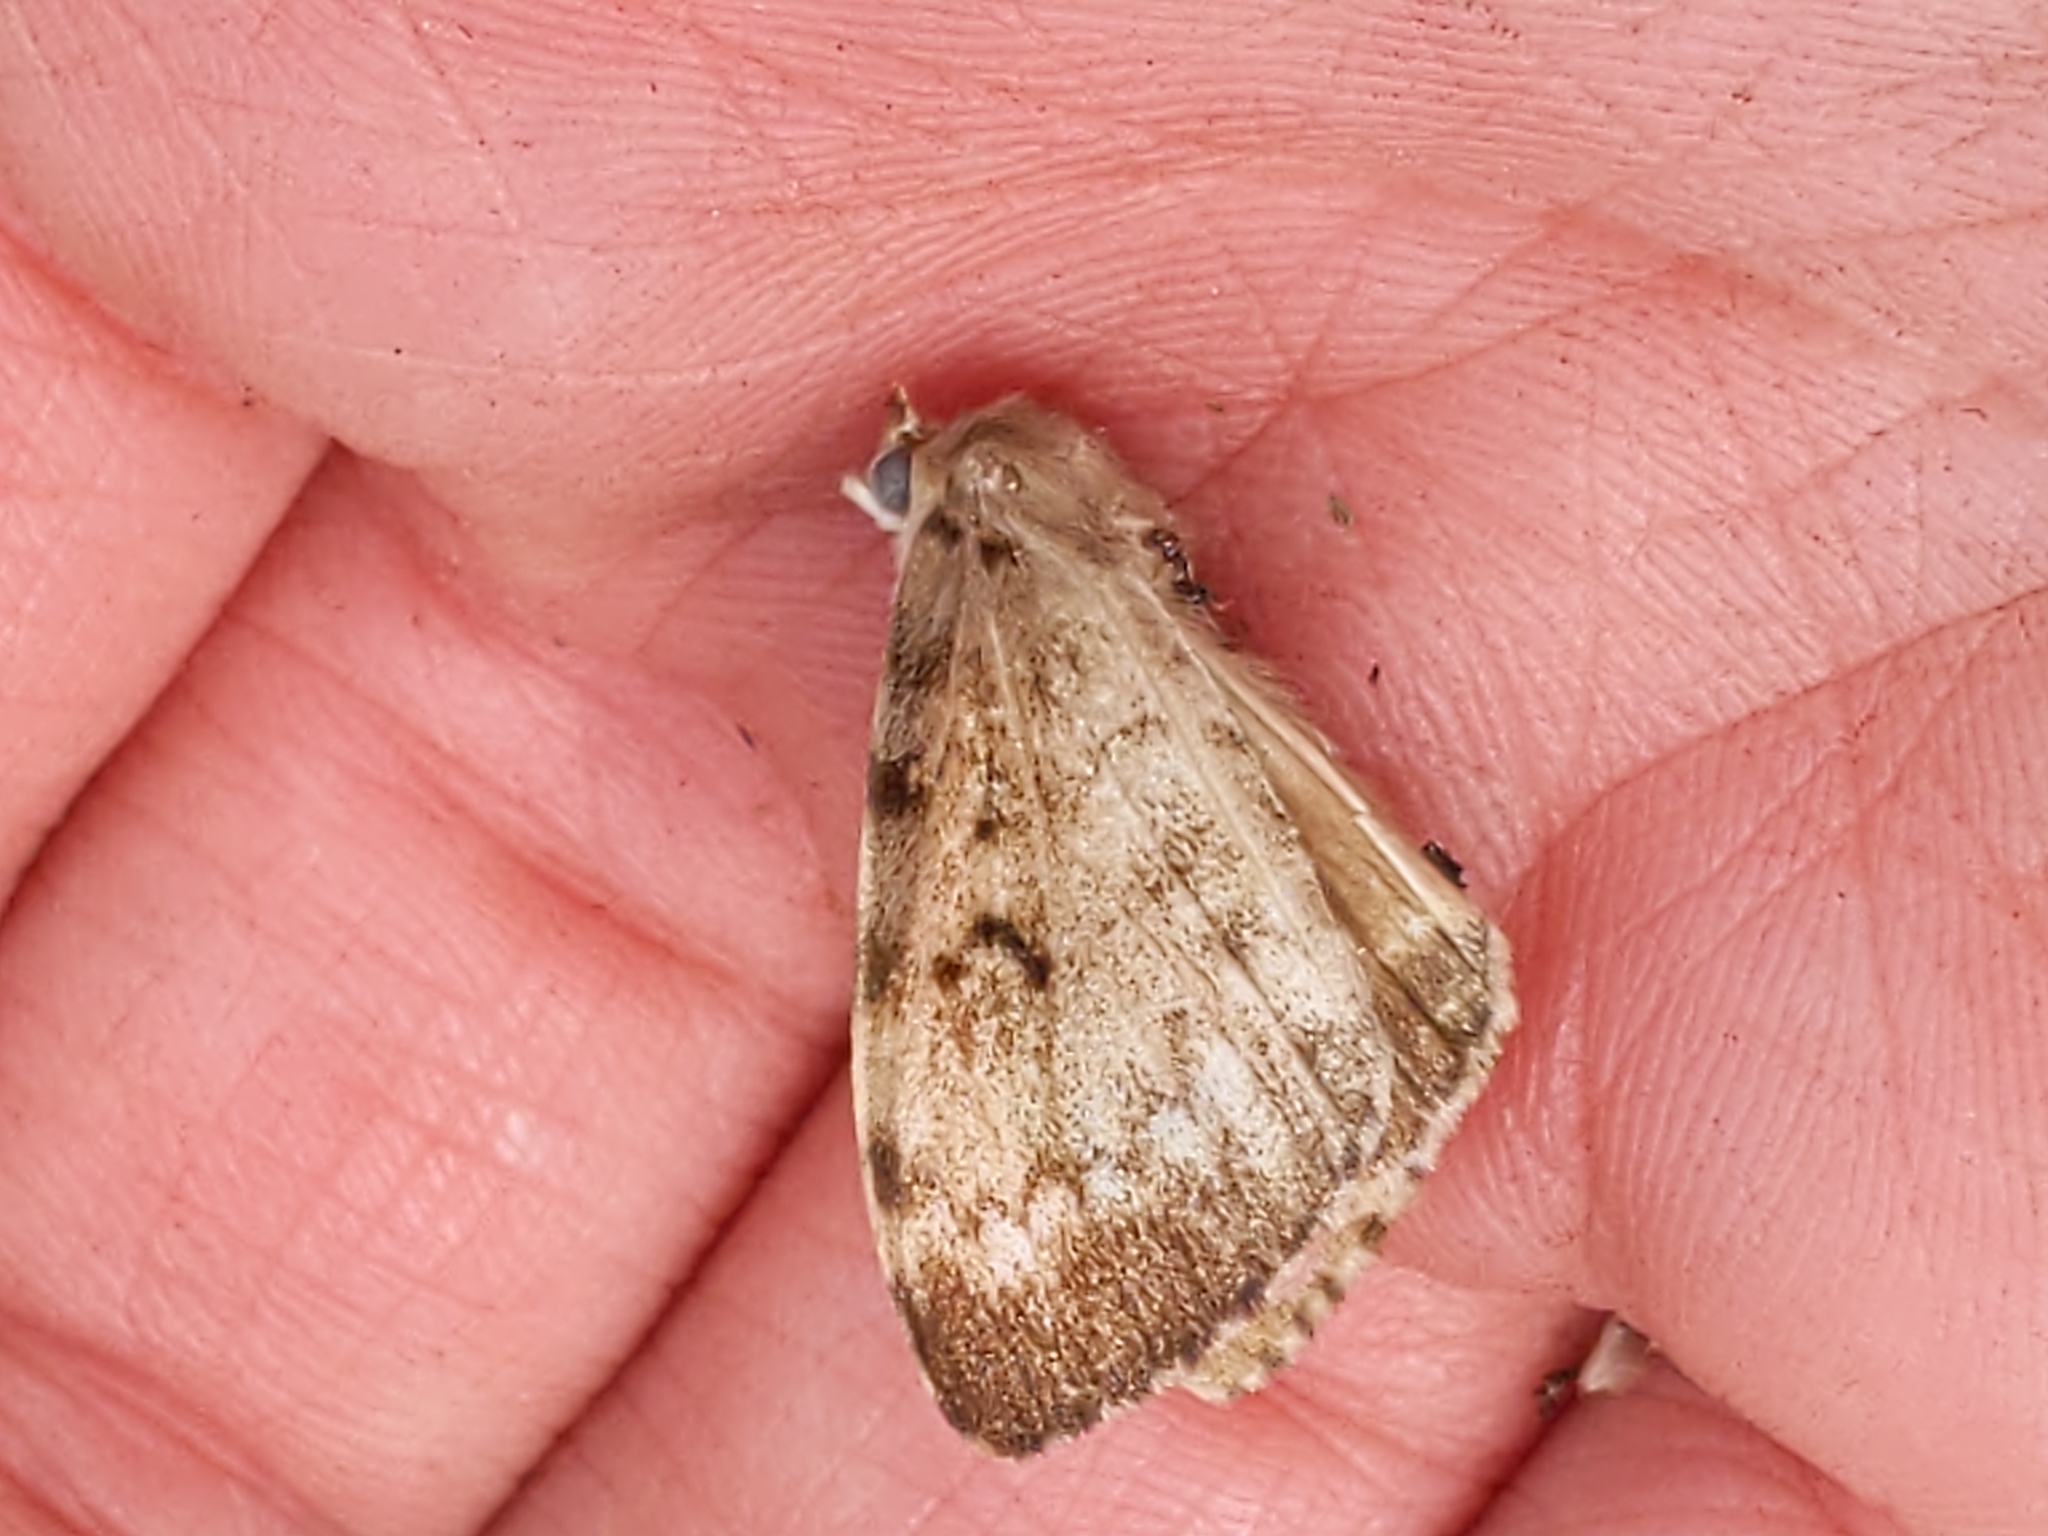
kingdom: Animalia
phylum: Arthropoda
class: Insecta
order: Lepidoptera
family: Erebidae
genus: Lymantria
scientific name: Lymantria dispar
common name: Gypsy moth
